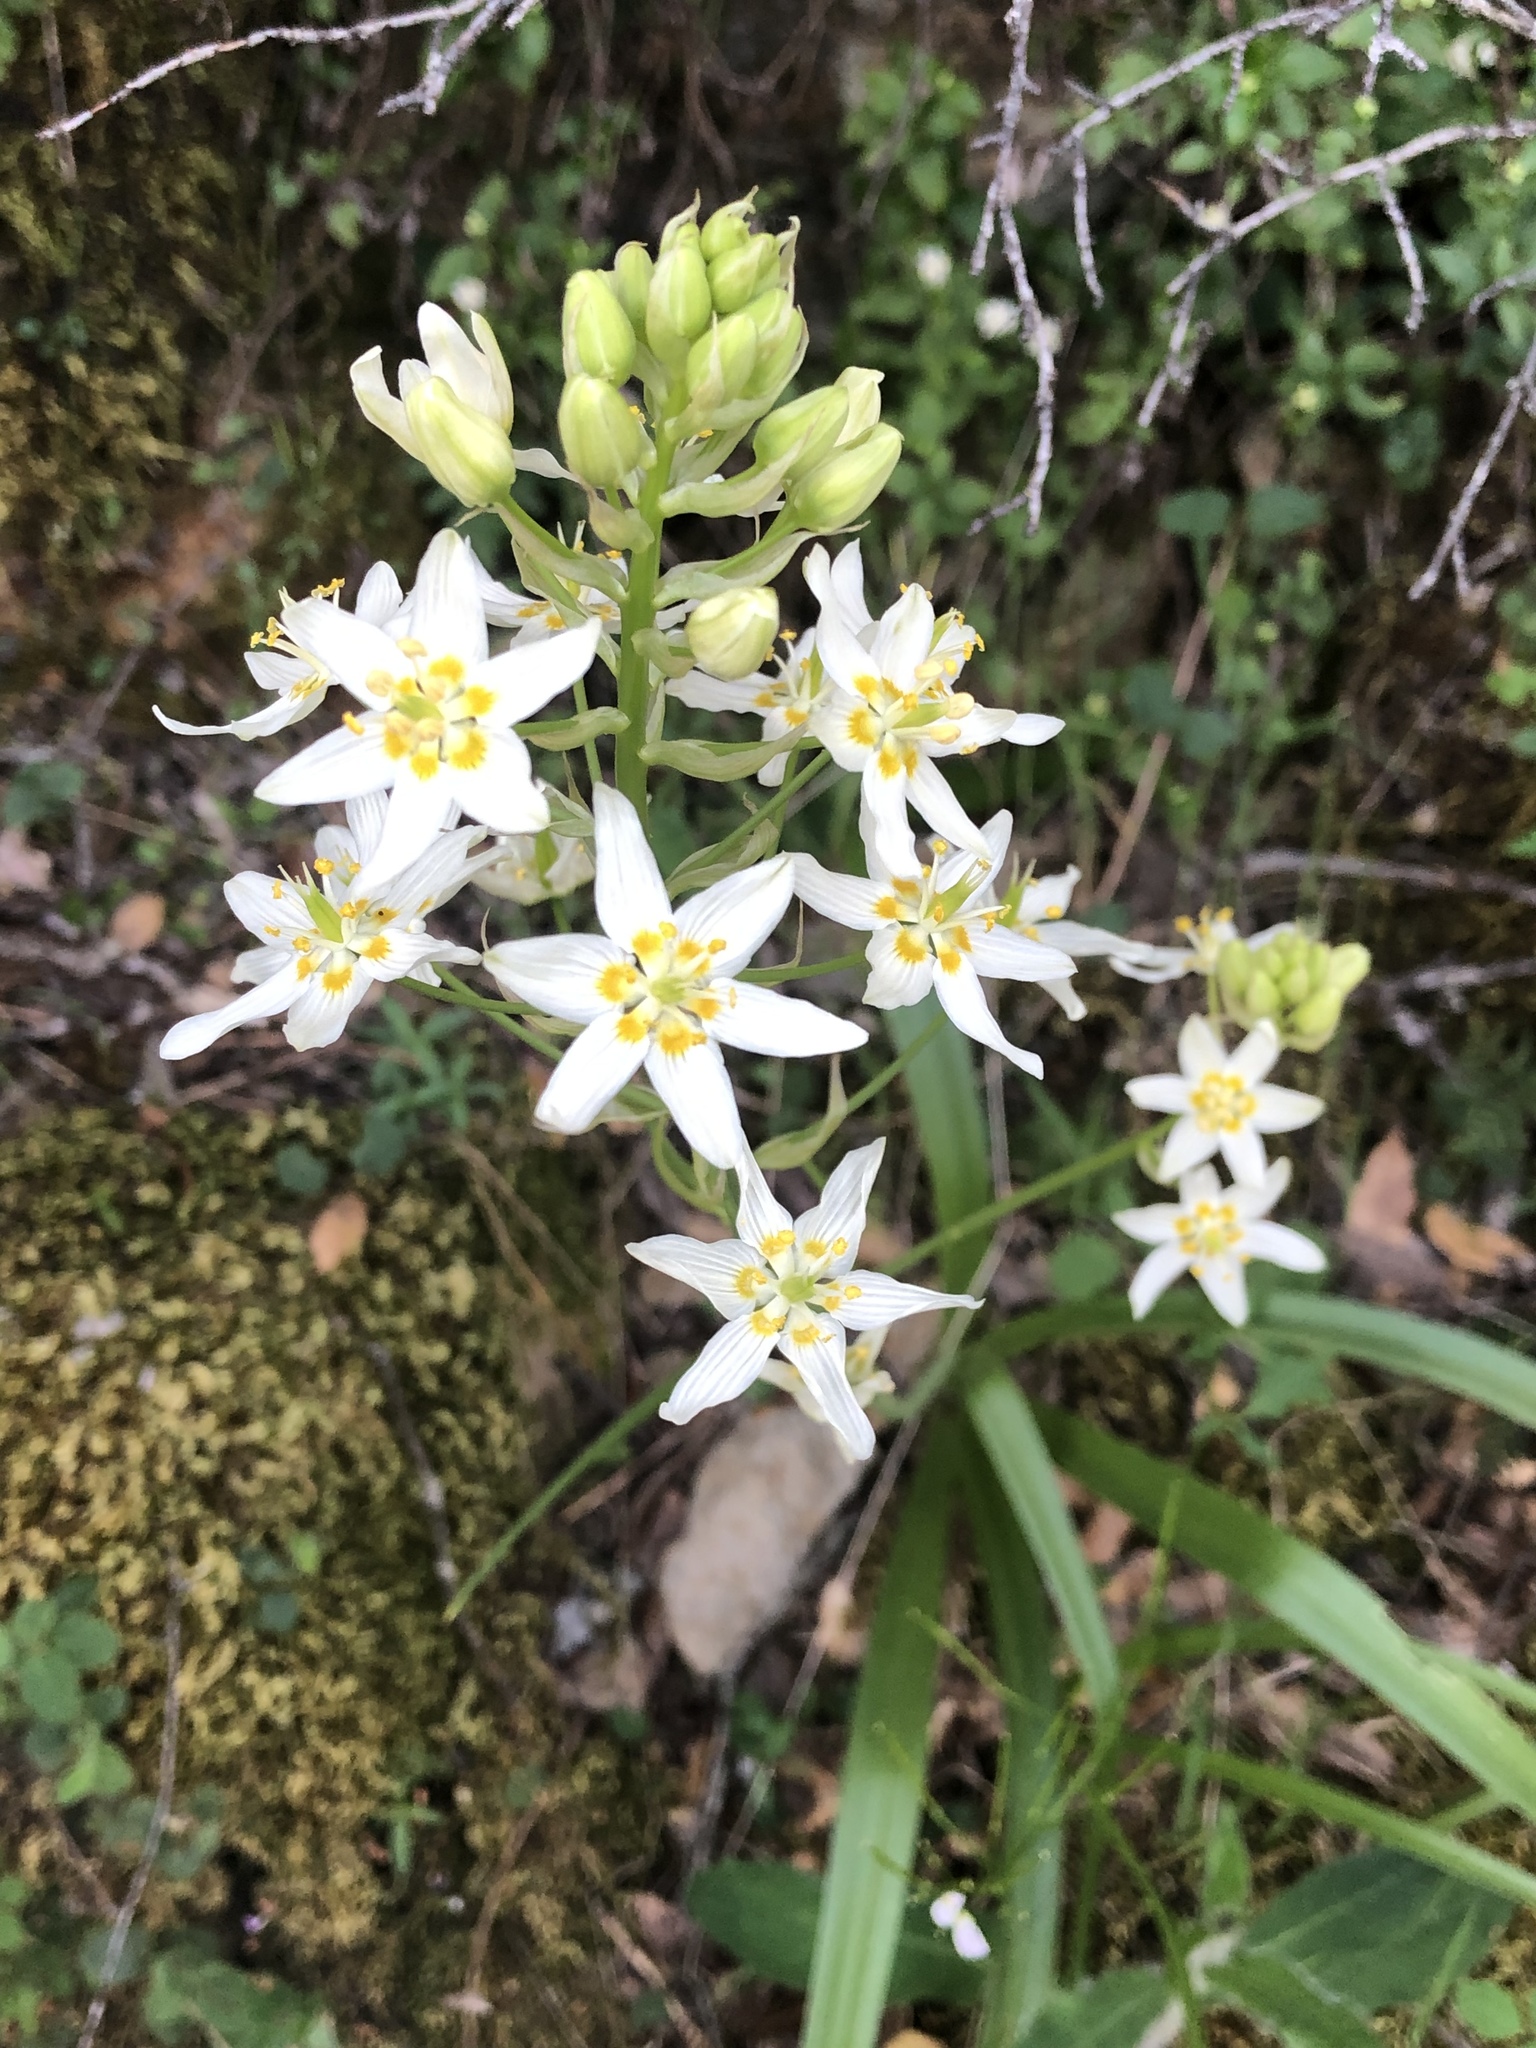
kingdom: Plantae
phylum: Tracheophyta
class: Liliopsida
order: Liliales
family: Melanthiaceae
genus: Toxicoscordion
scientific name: Toxicoscordion fremontii
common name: Fremont's death camas
